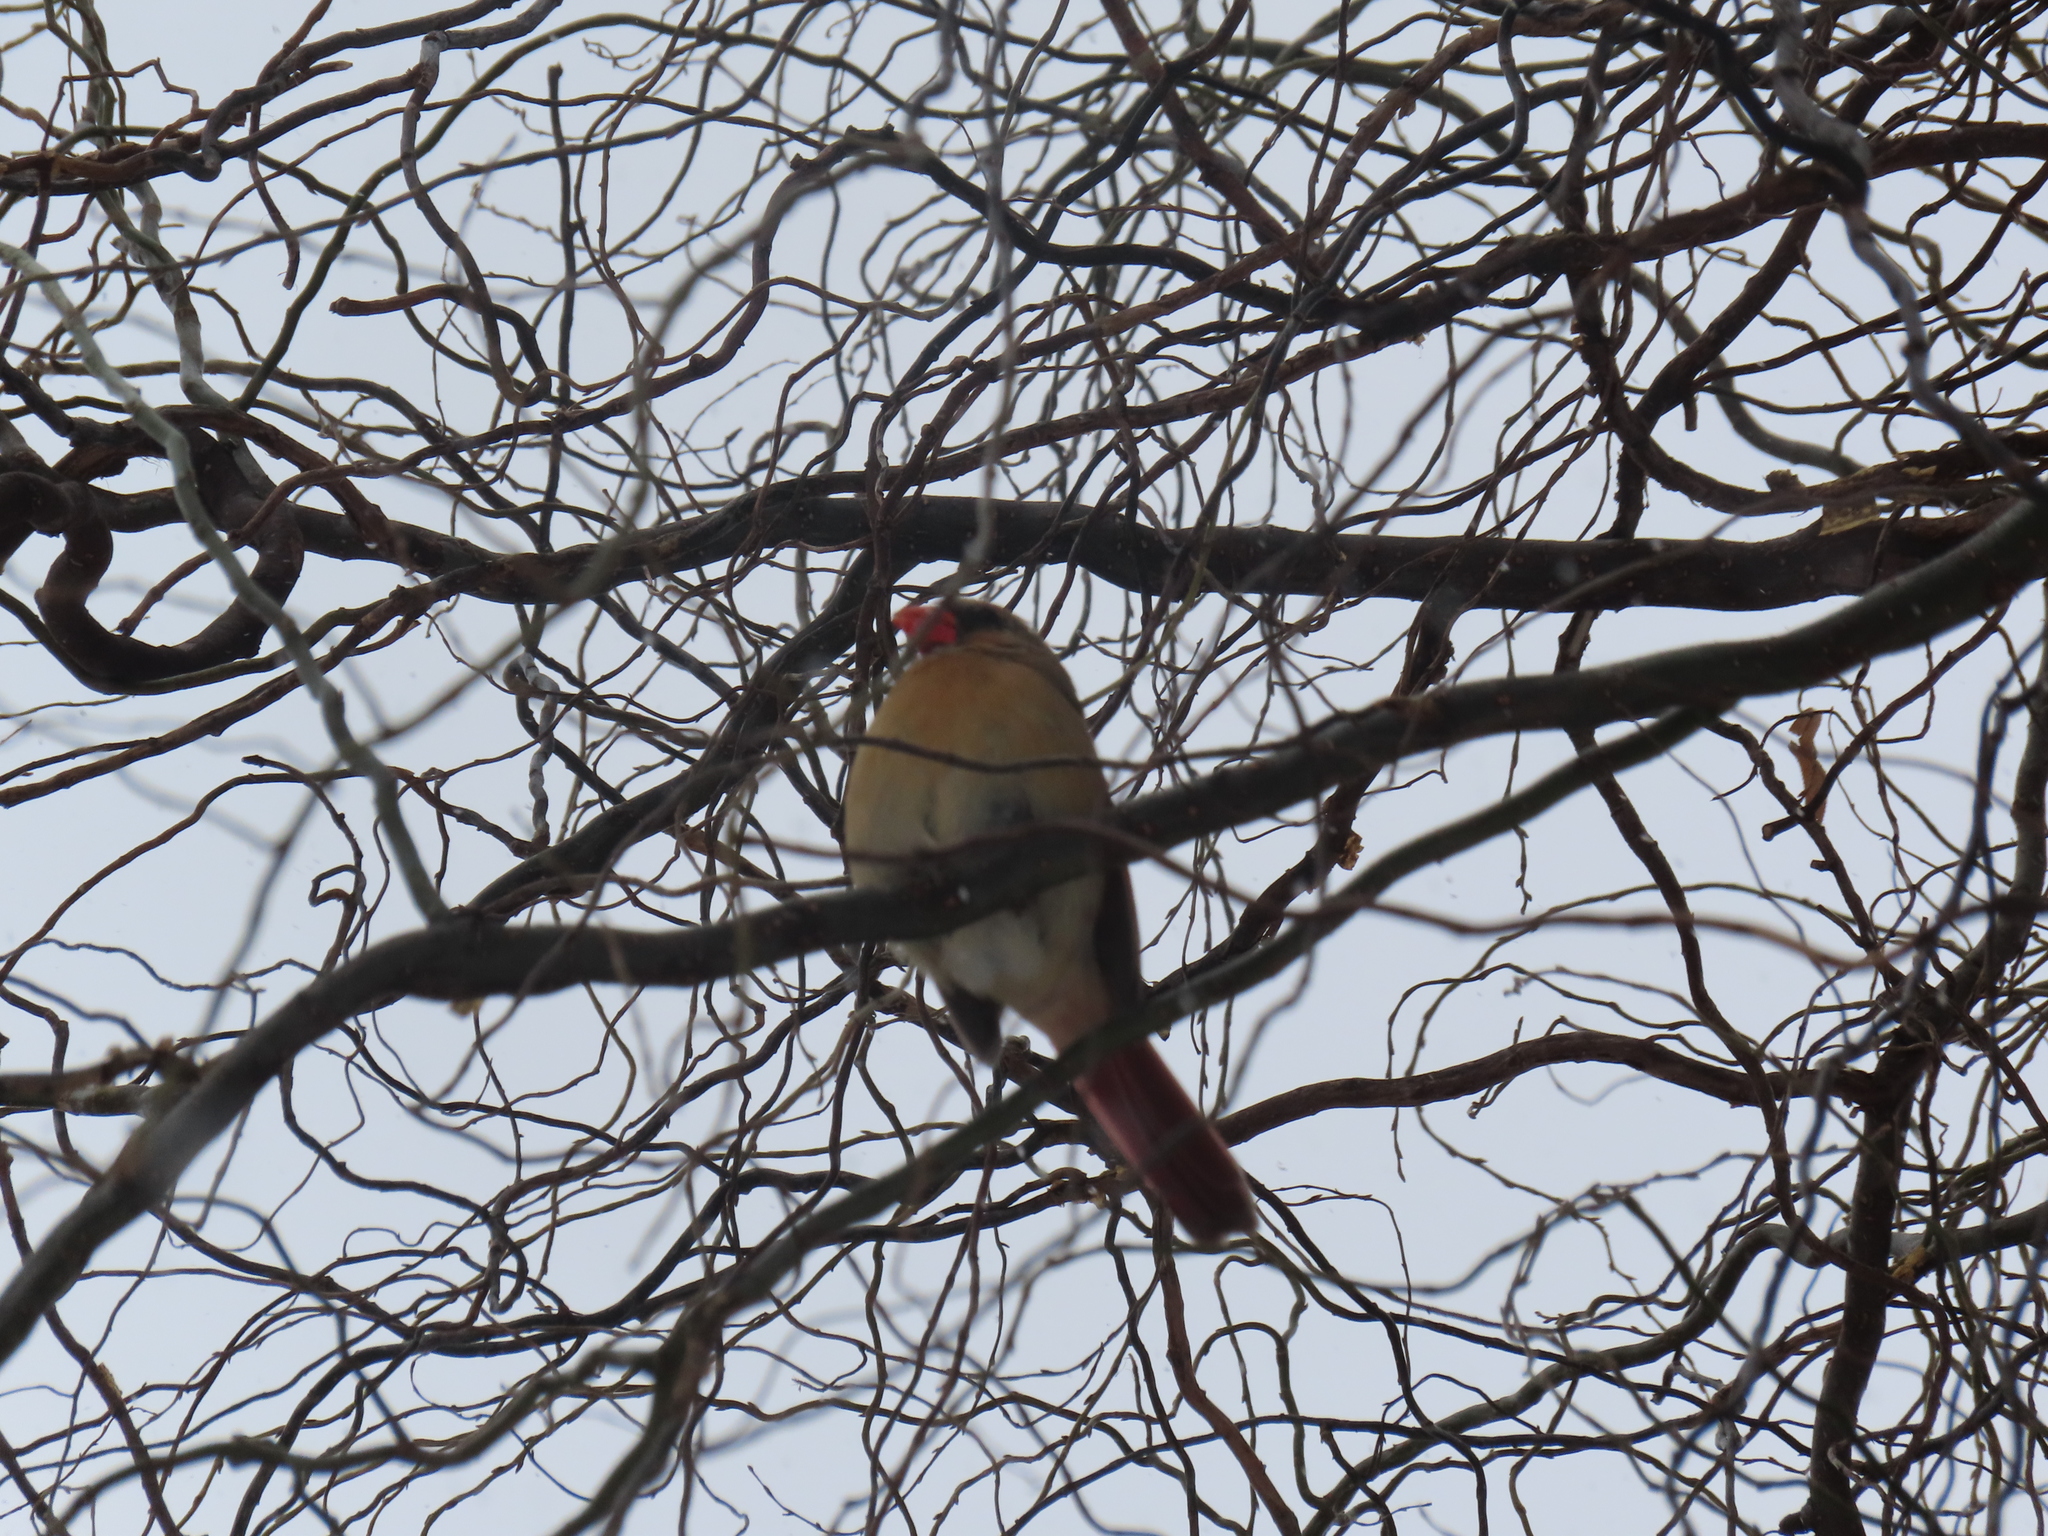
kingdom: Animalia
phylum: Chordata
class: Aves
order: Passeriformes
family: Cardinalidae
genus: Cardinalis
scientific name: Cardinalis cardinalis
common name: Northern cardinal
